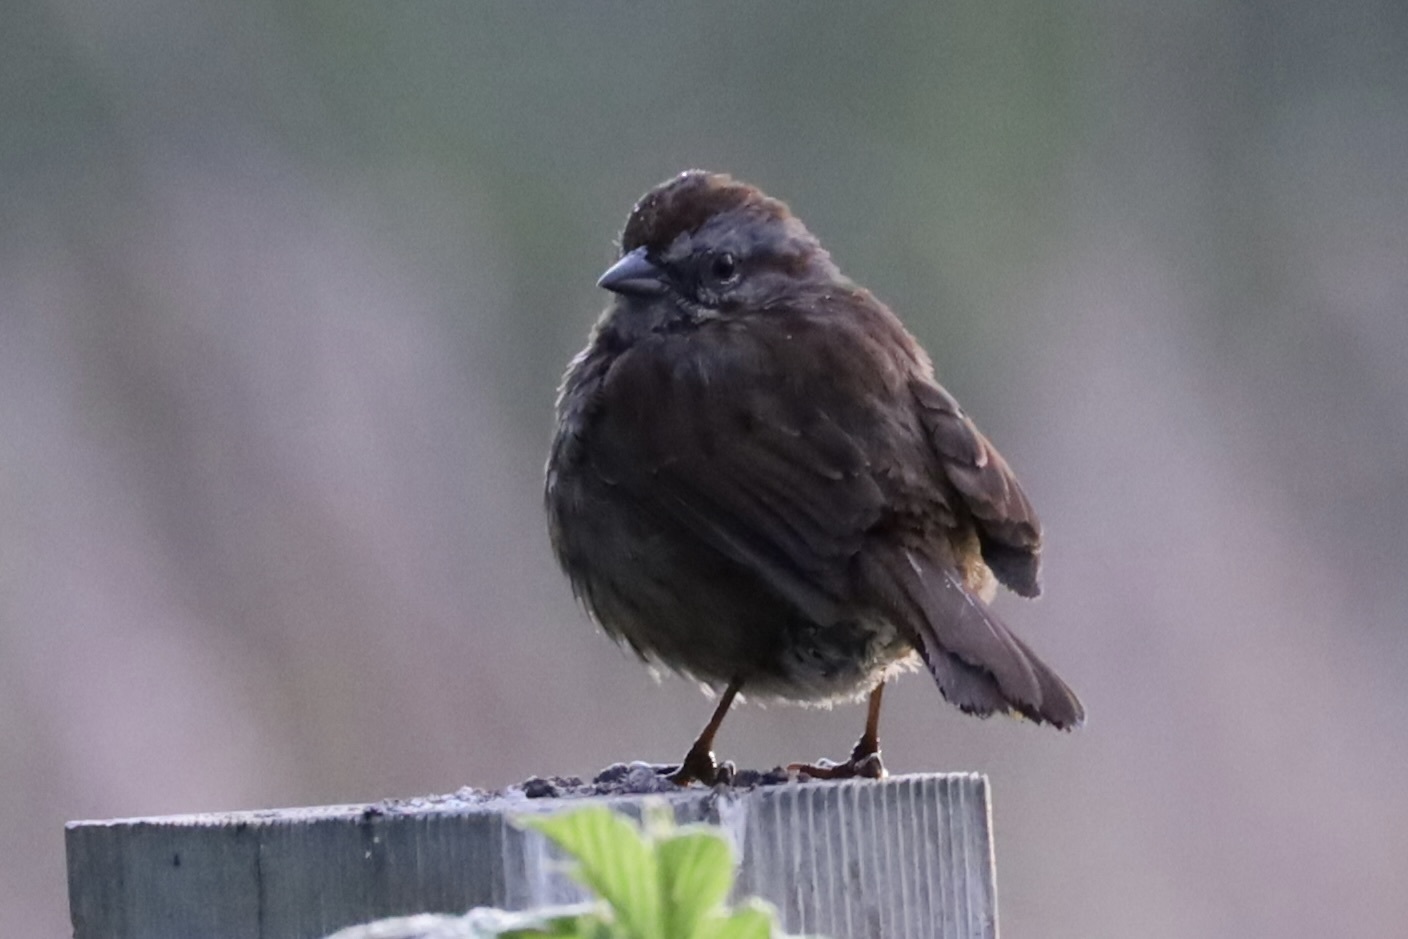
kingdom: Animalia
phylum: Chordata
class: Aves
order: Passeriformes
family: Passerellidae
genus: Melospiza
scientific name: Melospiza melodia
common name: Song sparrow
